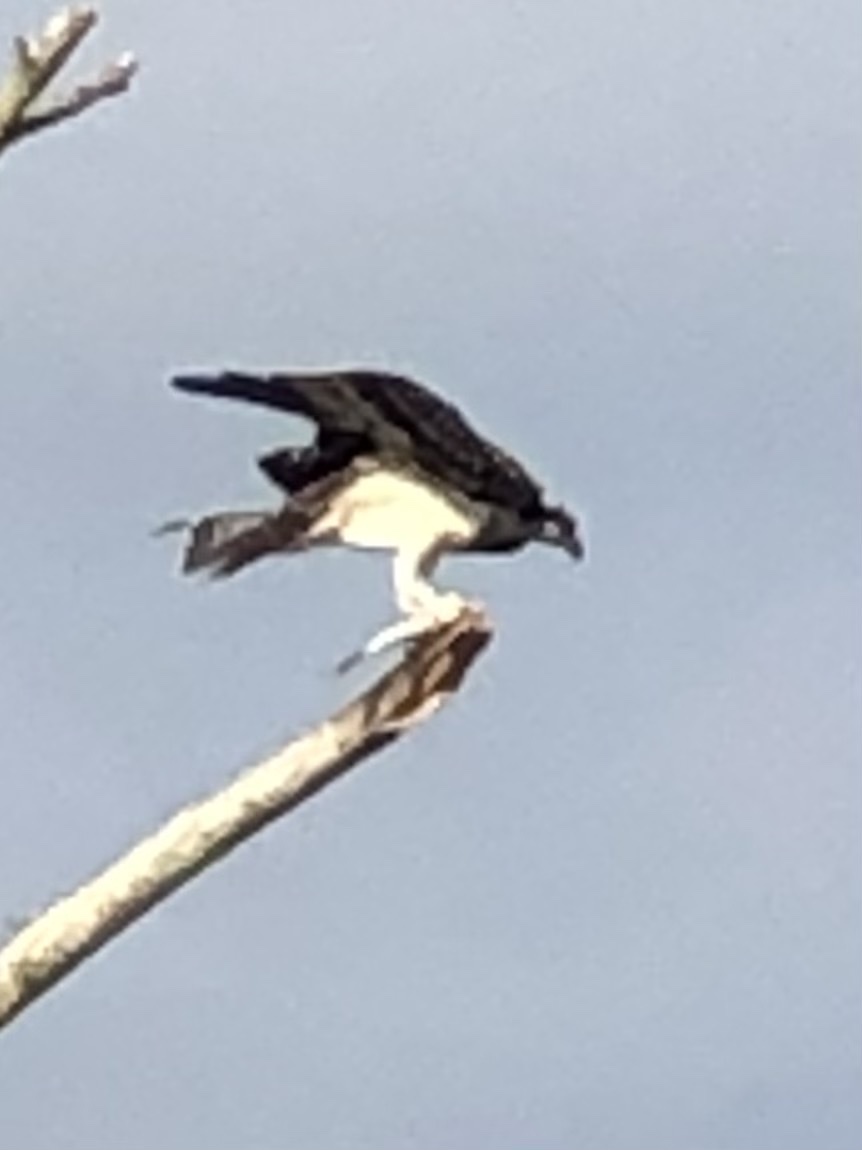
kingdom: Animalia
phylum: Chordata
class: Aves
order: Accipitriformes
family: Pandionidae
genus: Pandion
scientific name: Pandion haliaetus
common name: Osprey
